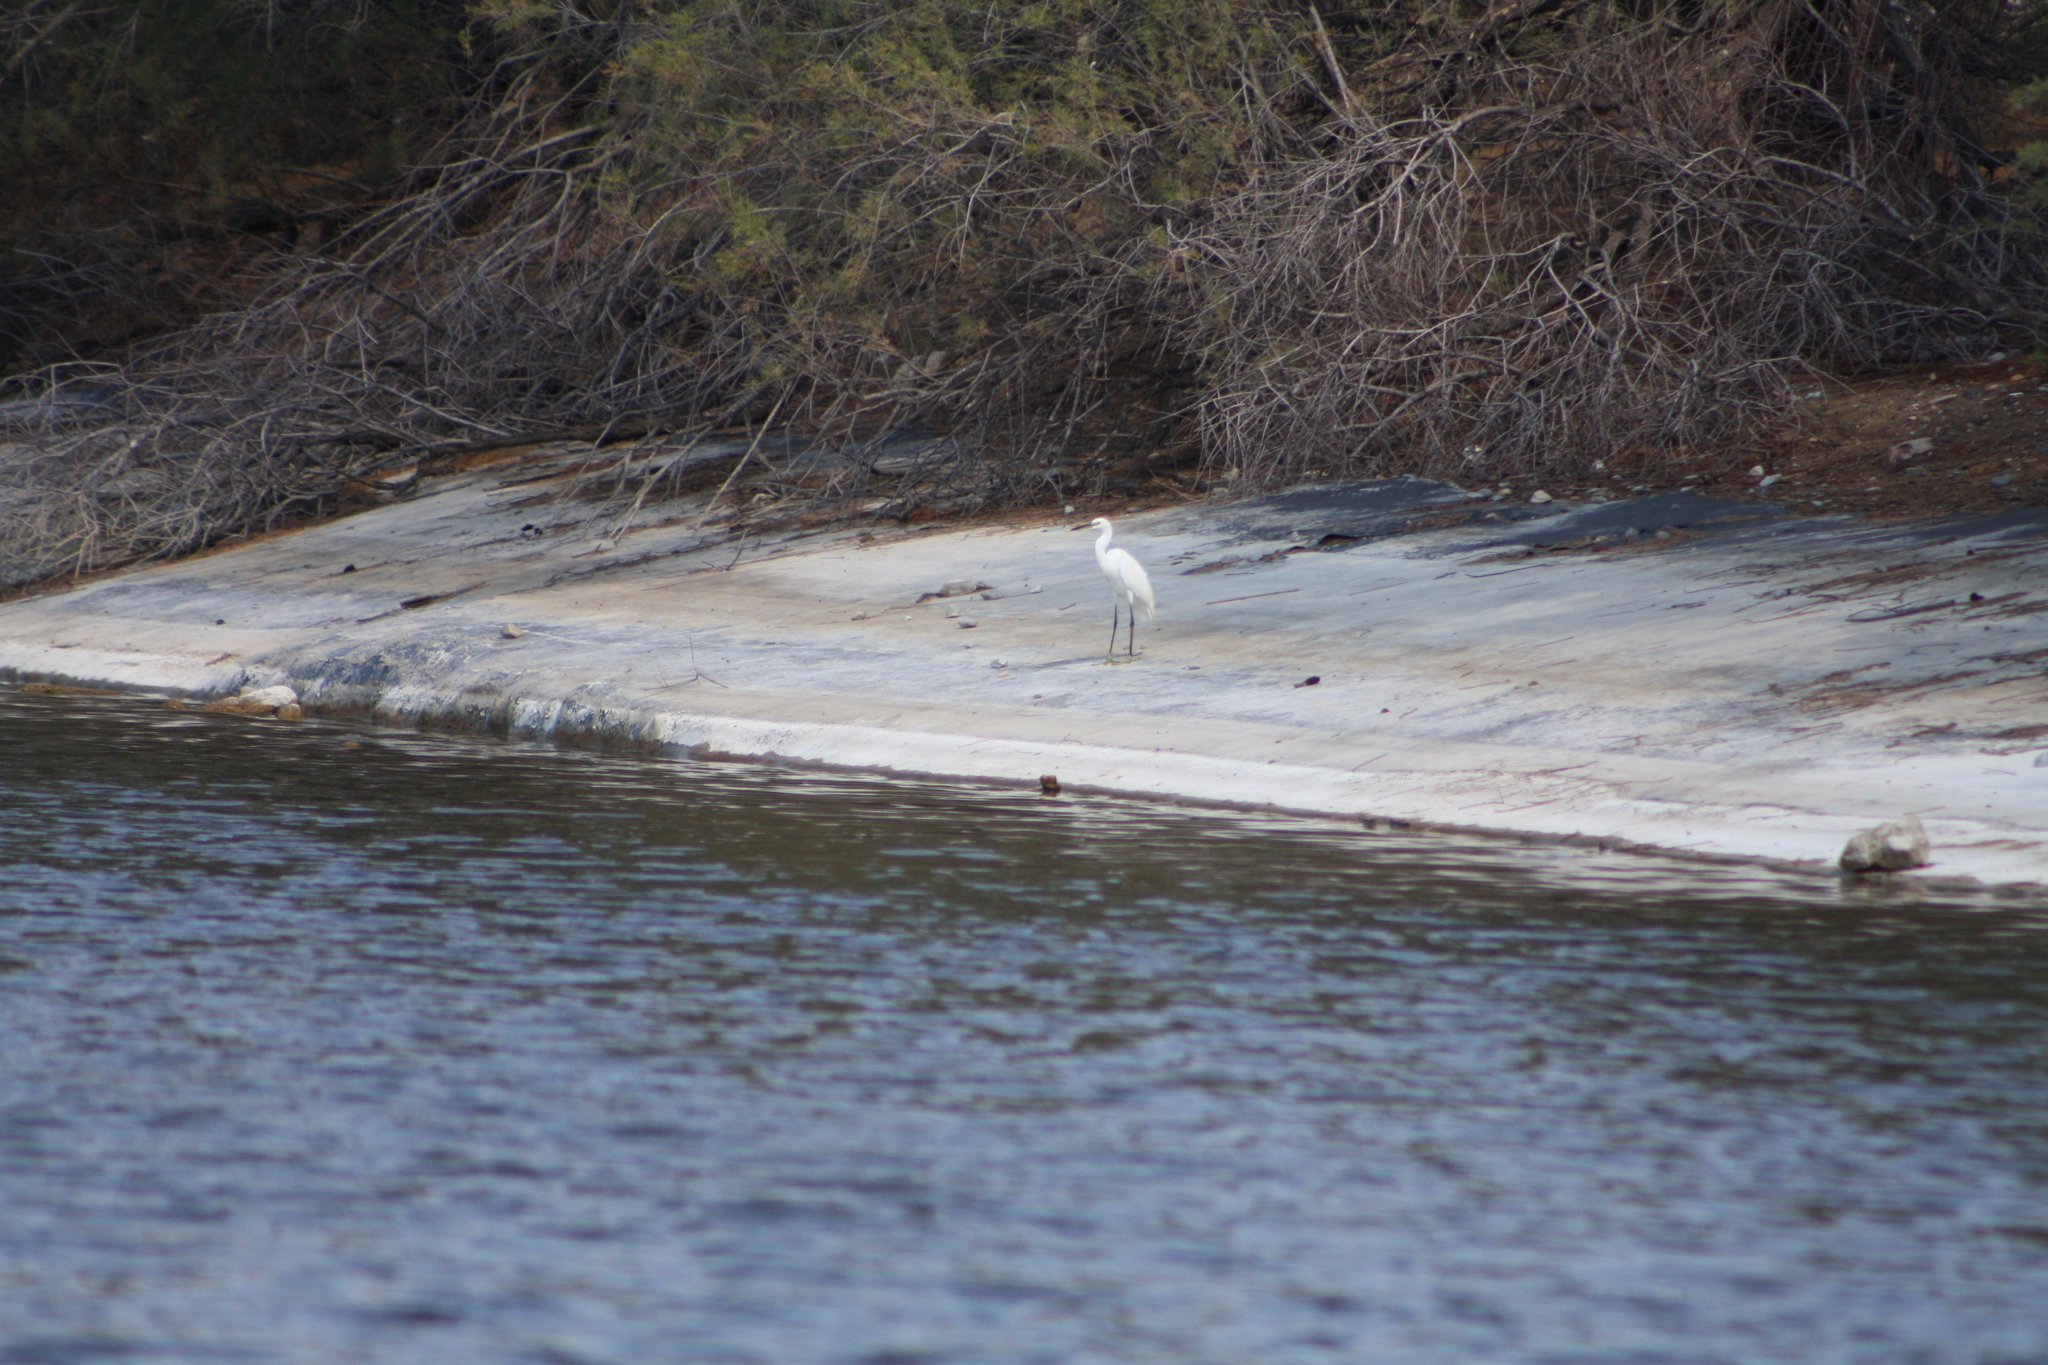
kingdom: Animalia
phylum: Chordata
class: Aves
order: Pelecaniformes
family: Ardeidae
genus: Egretta
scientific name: Egretta garzetta
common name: Little egret
